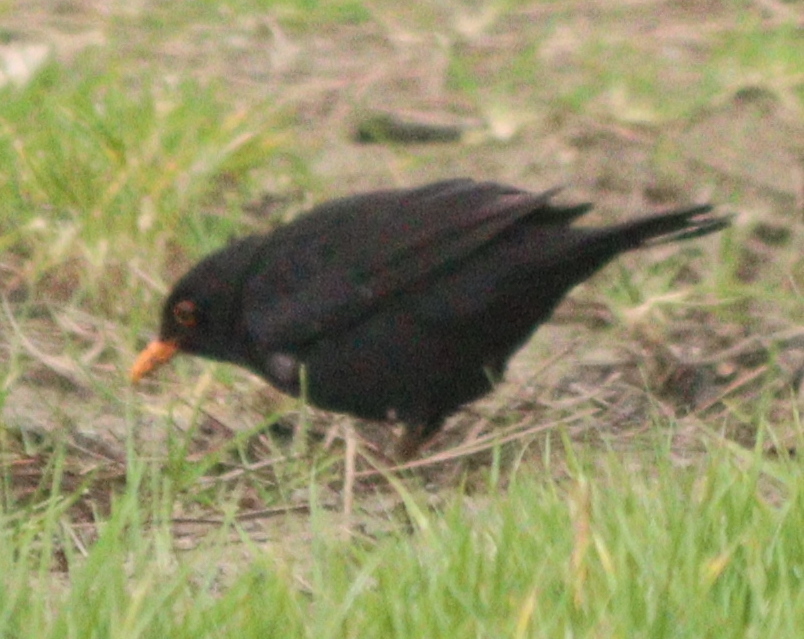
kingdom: Animalia
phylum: Chordata
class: Aves
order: Passeriformes
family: Turdidae
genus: Turdus
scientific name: Turdus merula
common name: Common blackbird
